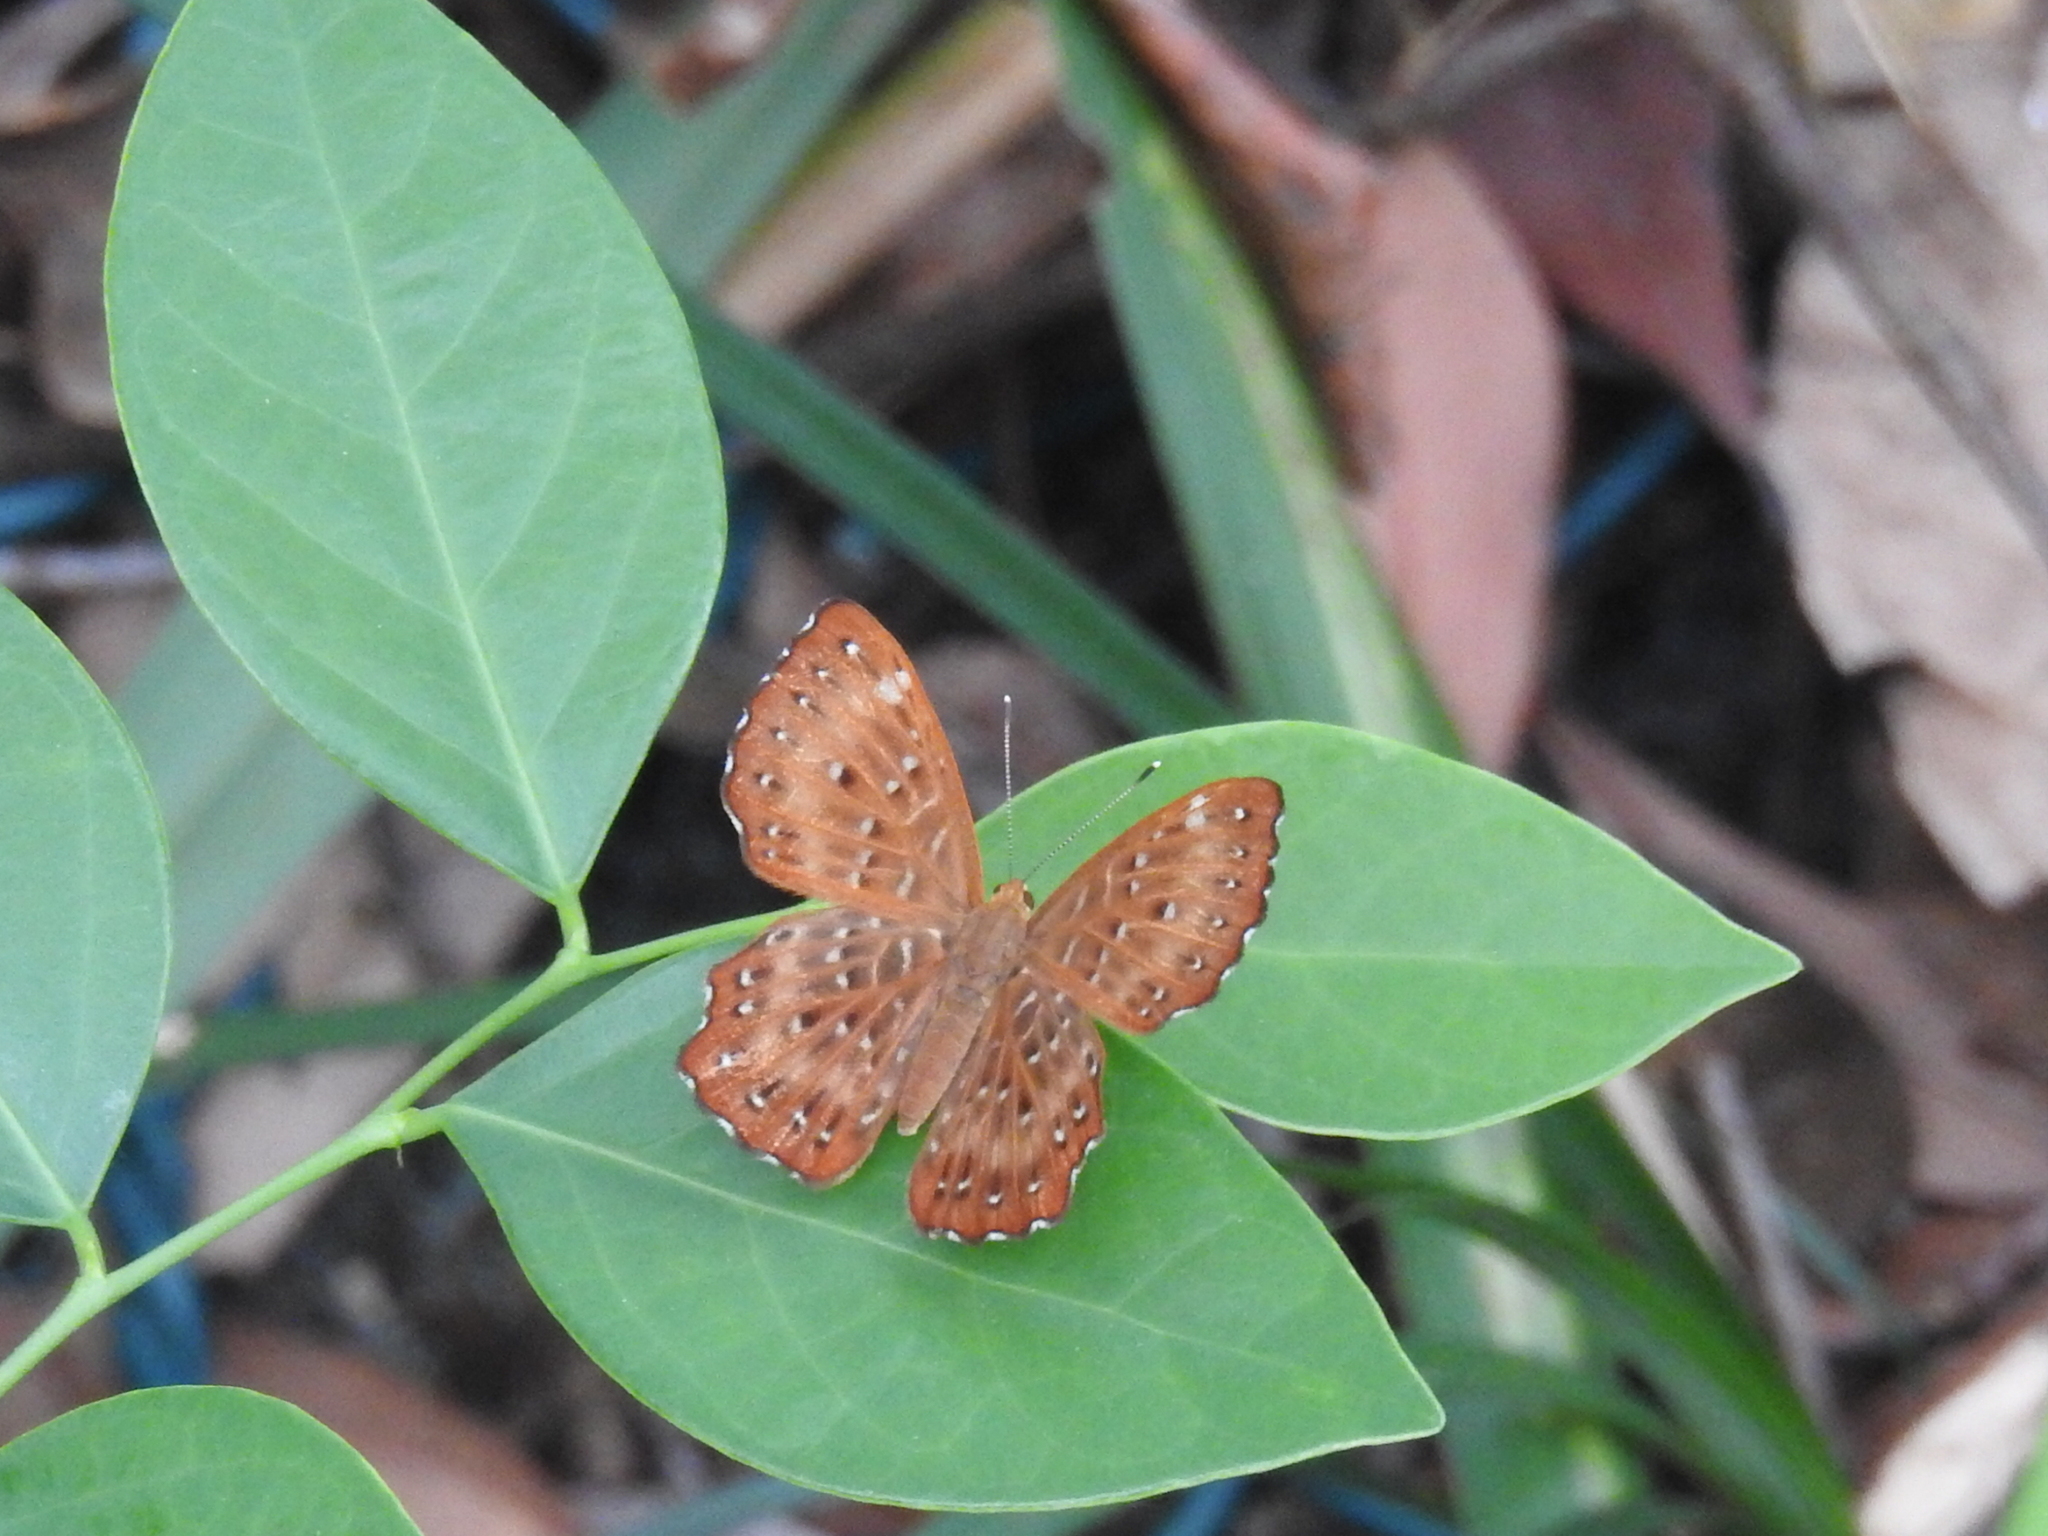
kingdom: Animalia
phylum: Arthropoda
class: Insecta
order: Lepidoptera
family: Riodinidae
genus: Zemeros
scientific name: Zemeros flegyas
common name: Punchinello
